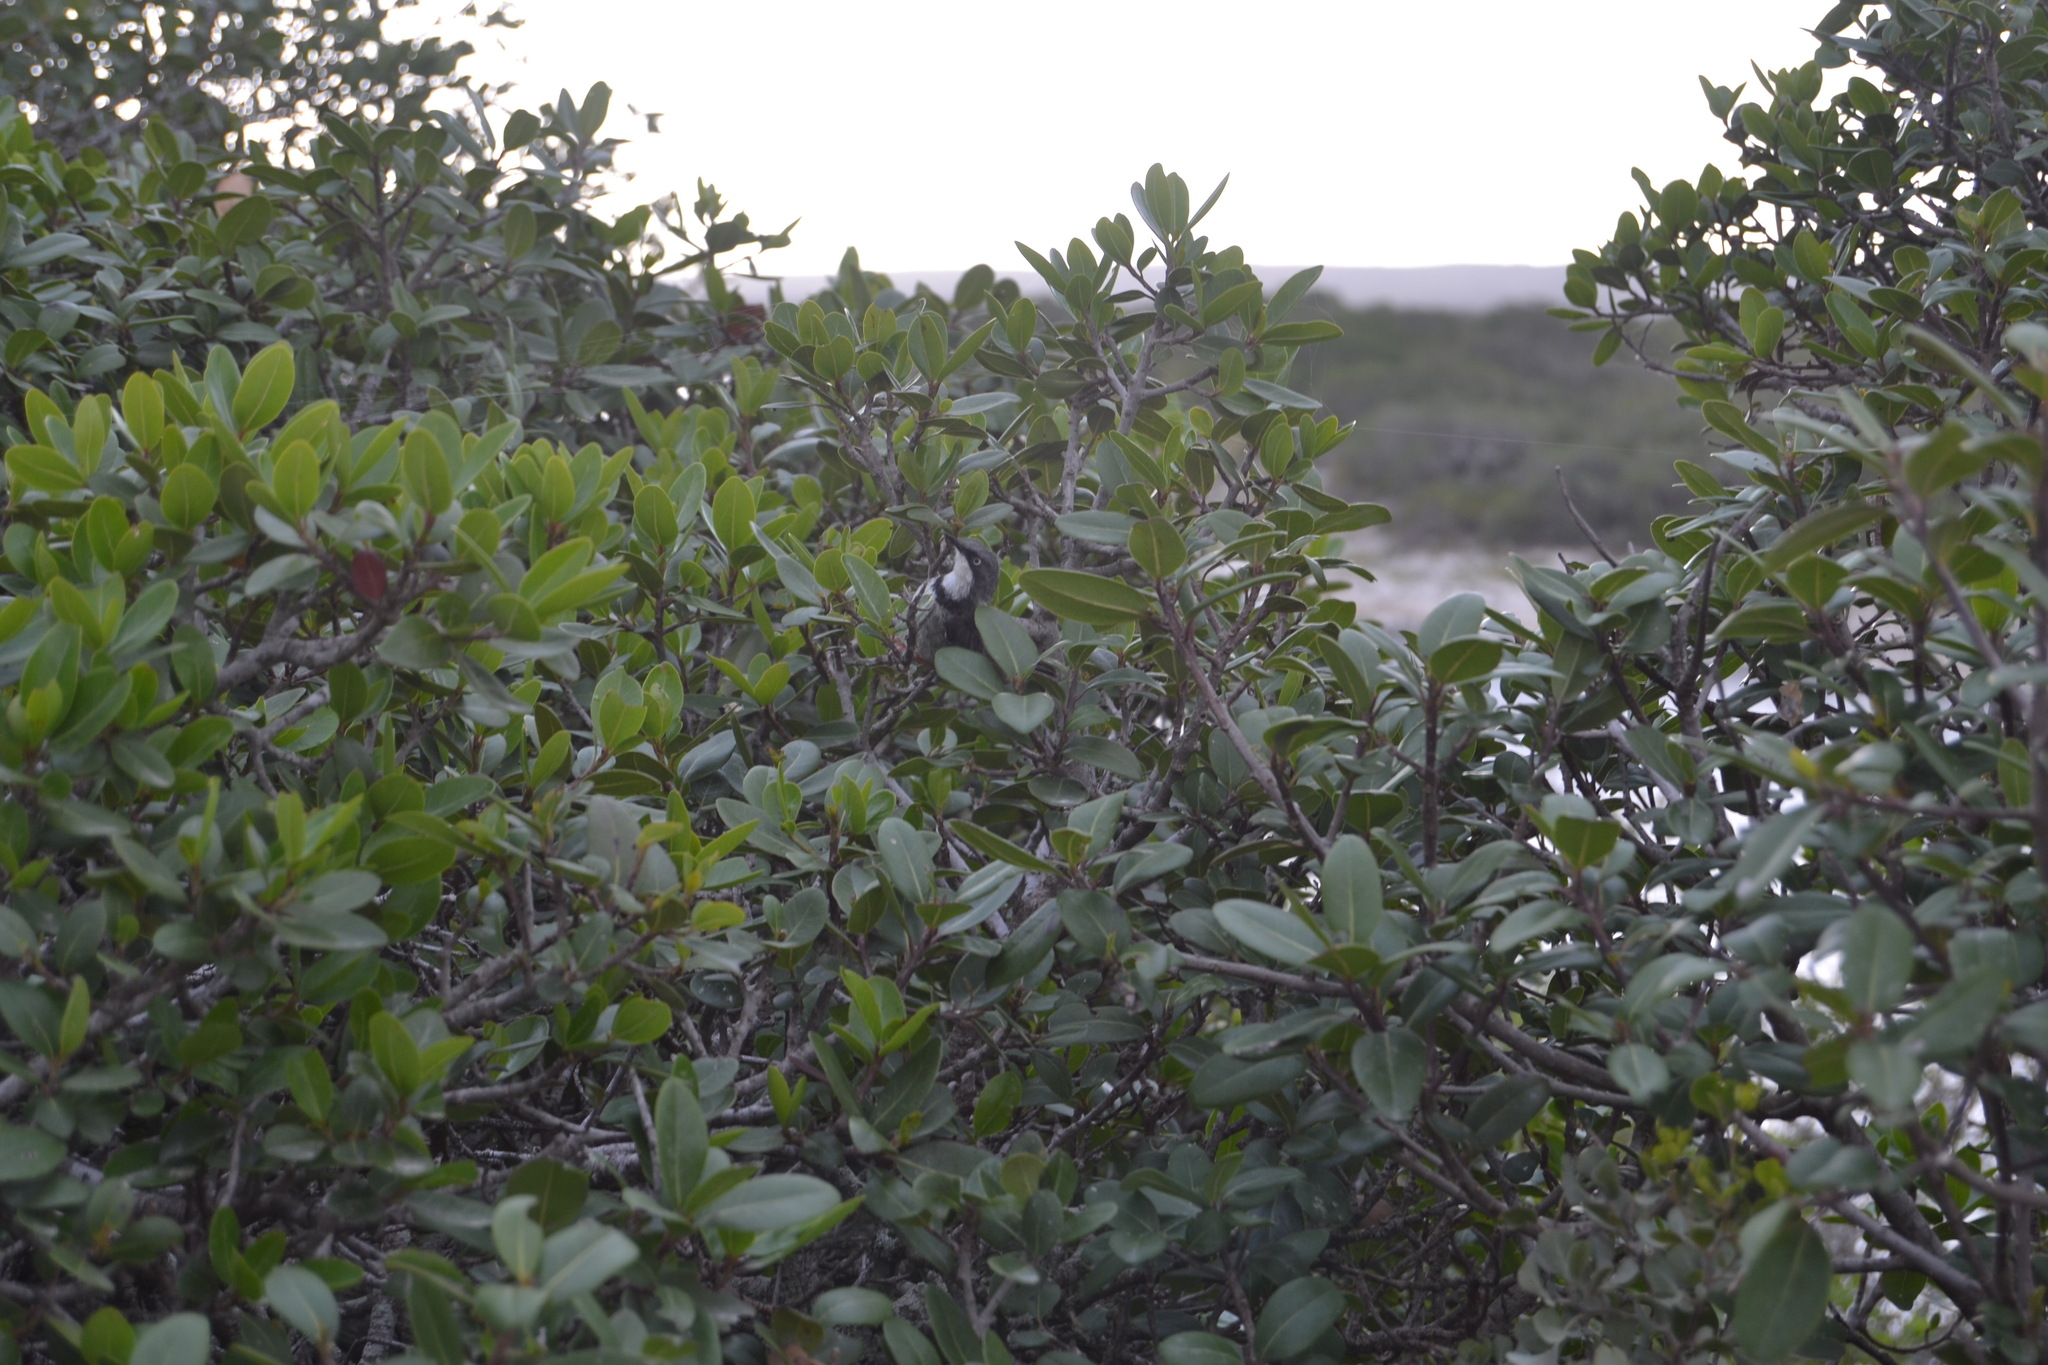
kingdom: Animalia
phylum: Chordata
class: Aves
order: Passeriformes
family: Cisticolidae
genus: Apalis
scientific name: Apalis thoracica
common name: Bar-throated apalis
